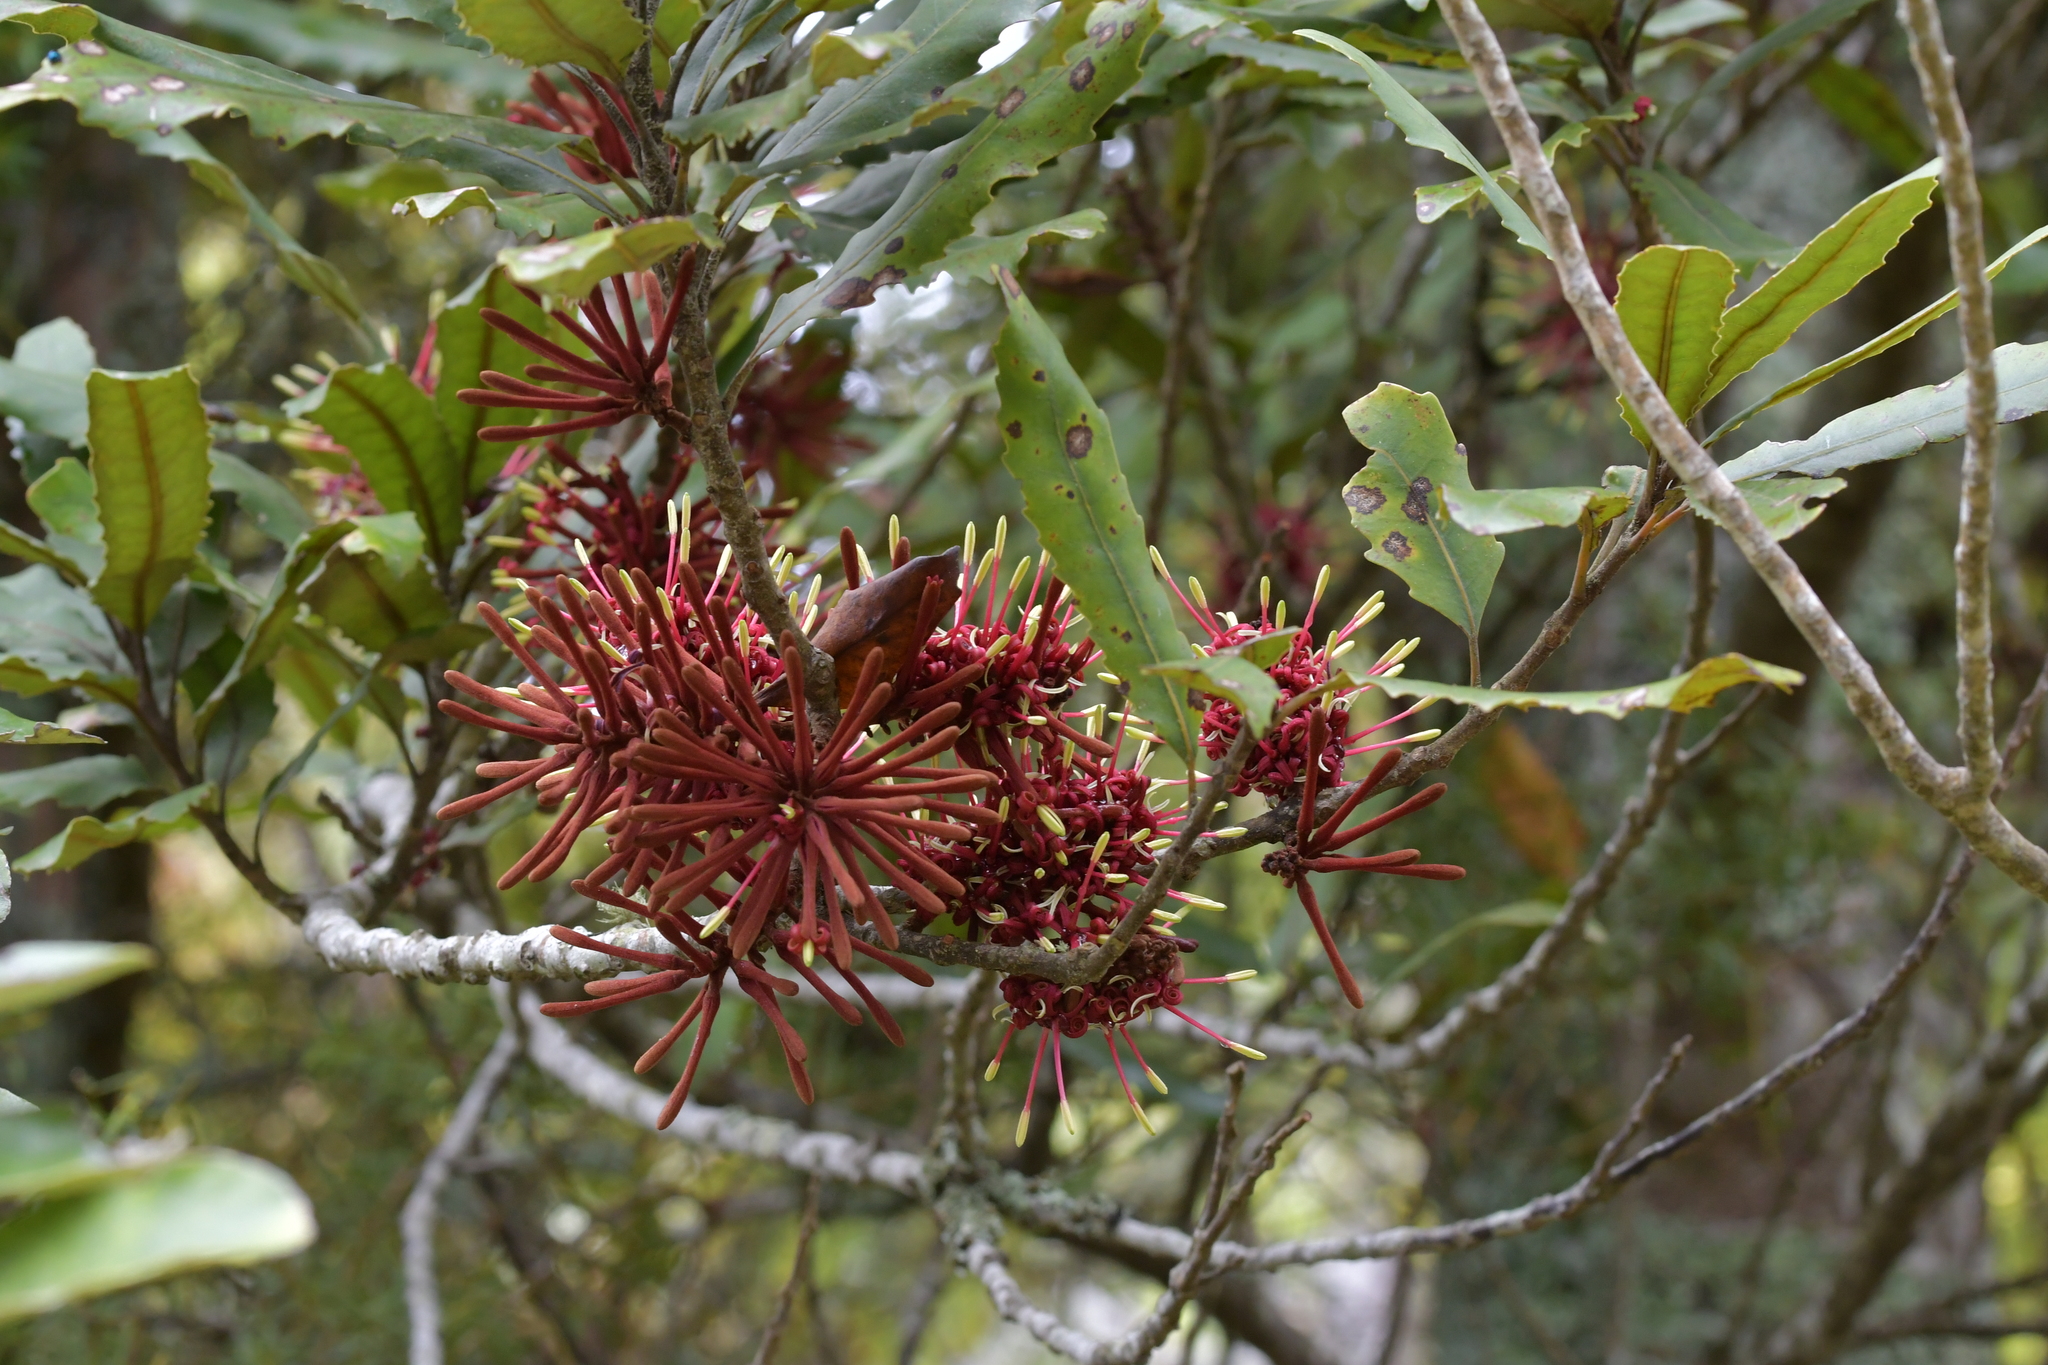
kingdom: Plantae
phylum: Tracheophyta
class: Magnoliopsida
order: Proteales
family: Proteaceae
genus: Knightia
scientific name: Knightia excelsa
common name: New zealand-honeysuckle
